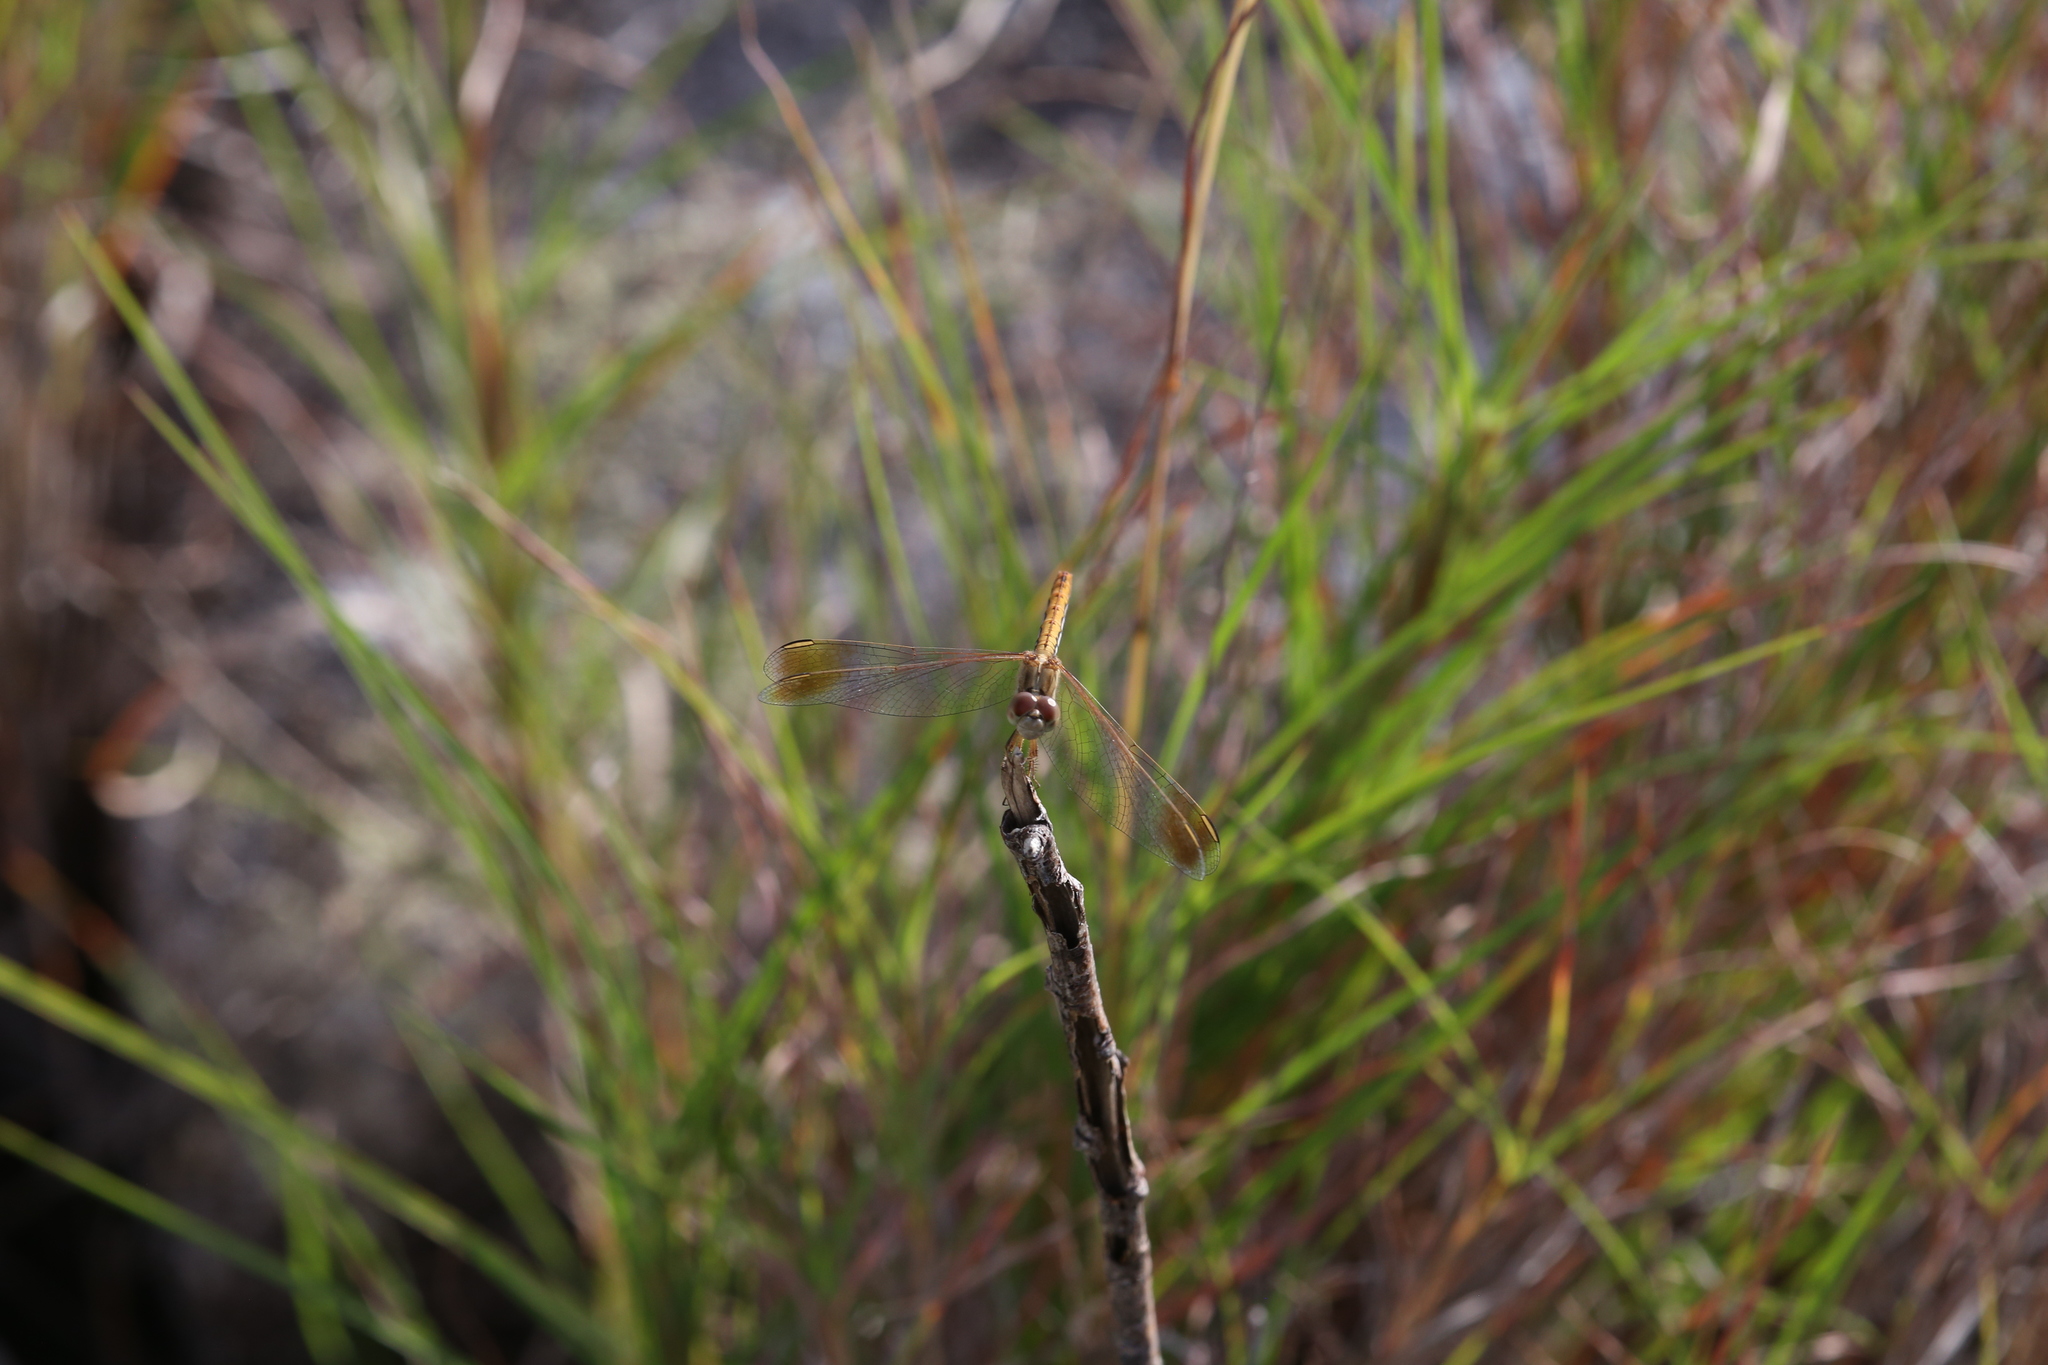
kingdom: Animalia
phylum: Arthropoda
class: Insecta
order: Odonata
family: Libellulidae
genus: Diplacodes
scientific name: Diplacodes haematodes
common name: Scarlet percher
